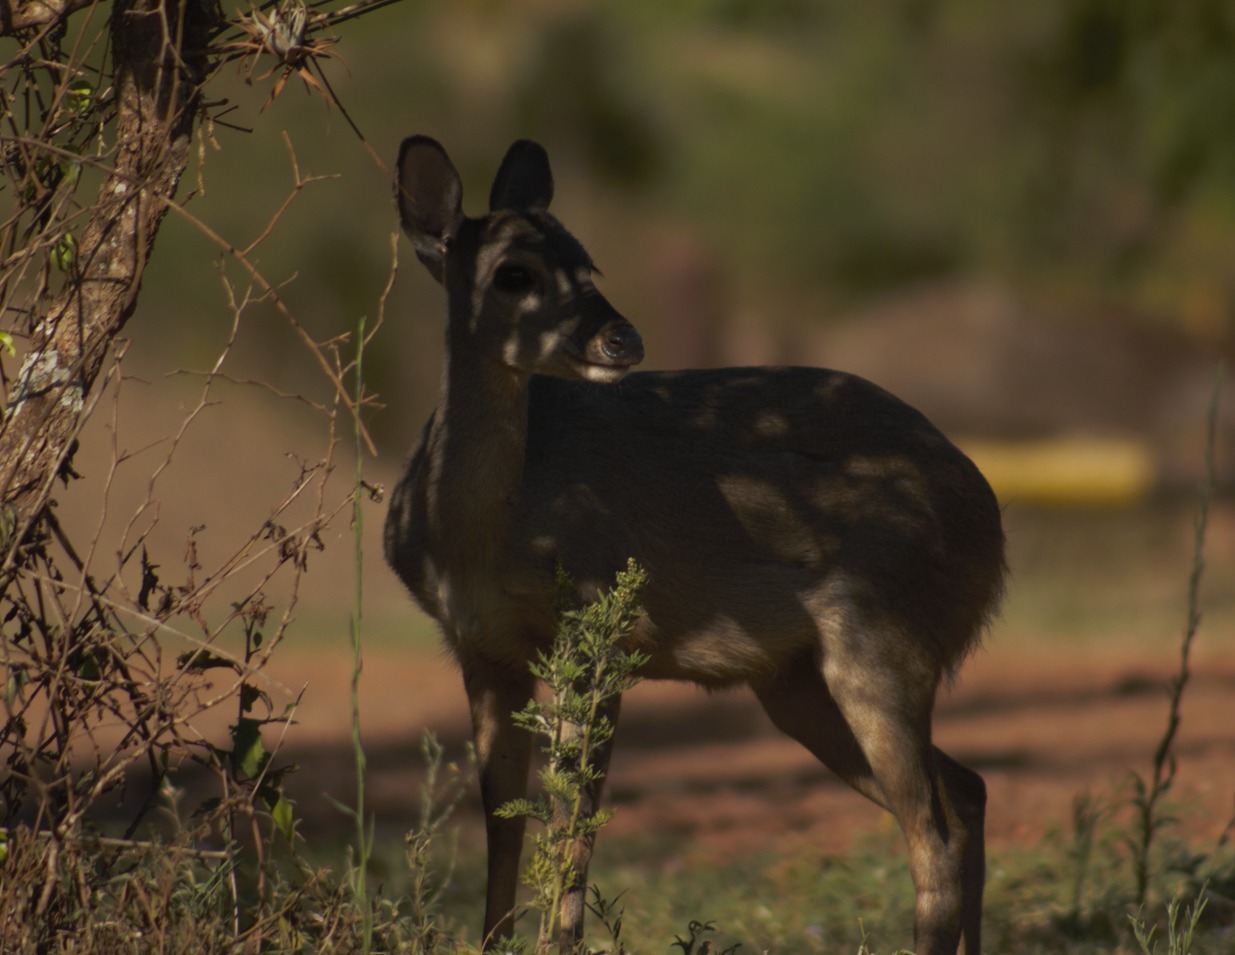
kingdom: Animalia
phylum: Chordata
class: Mammalia
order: Artiodactyla
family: Cervidae
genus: Mazama
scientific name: Mazama gouazoubira
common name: Gray brocket
